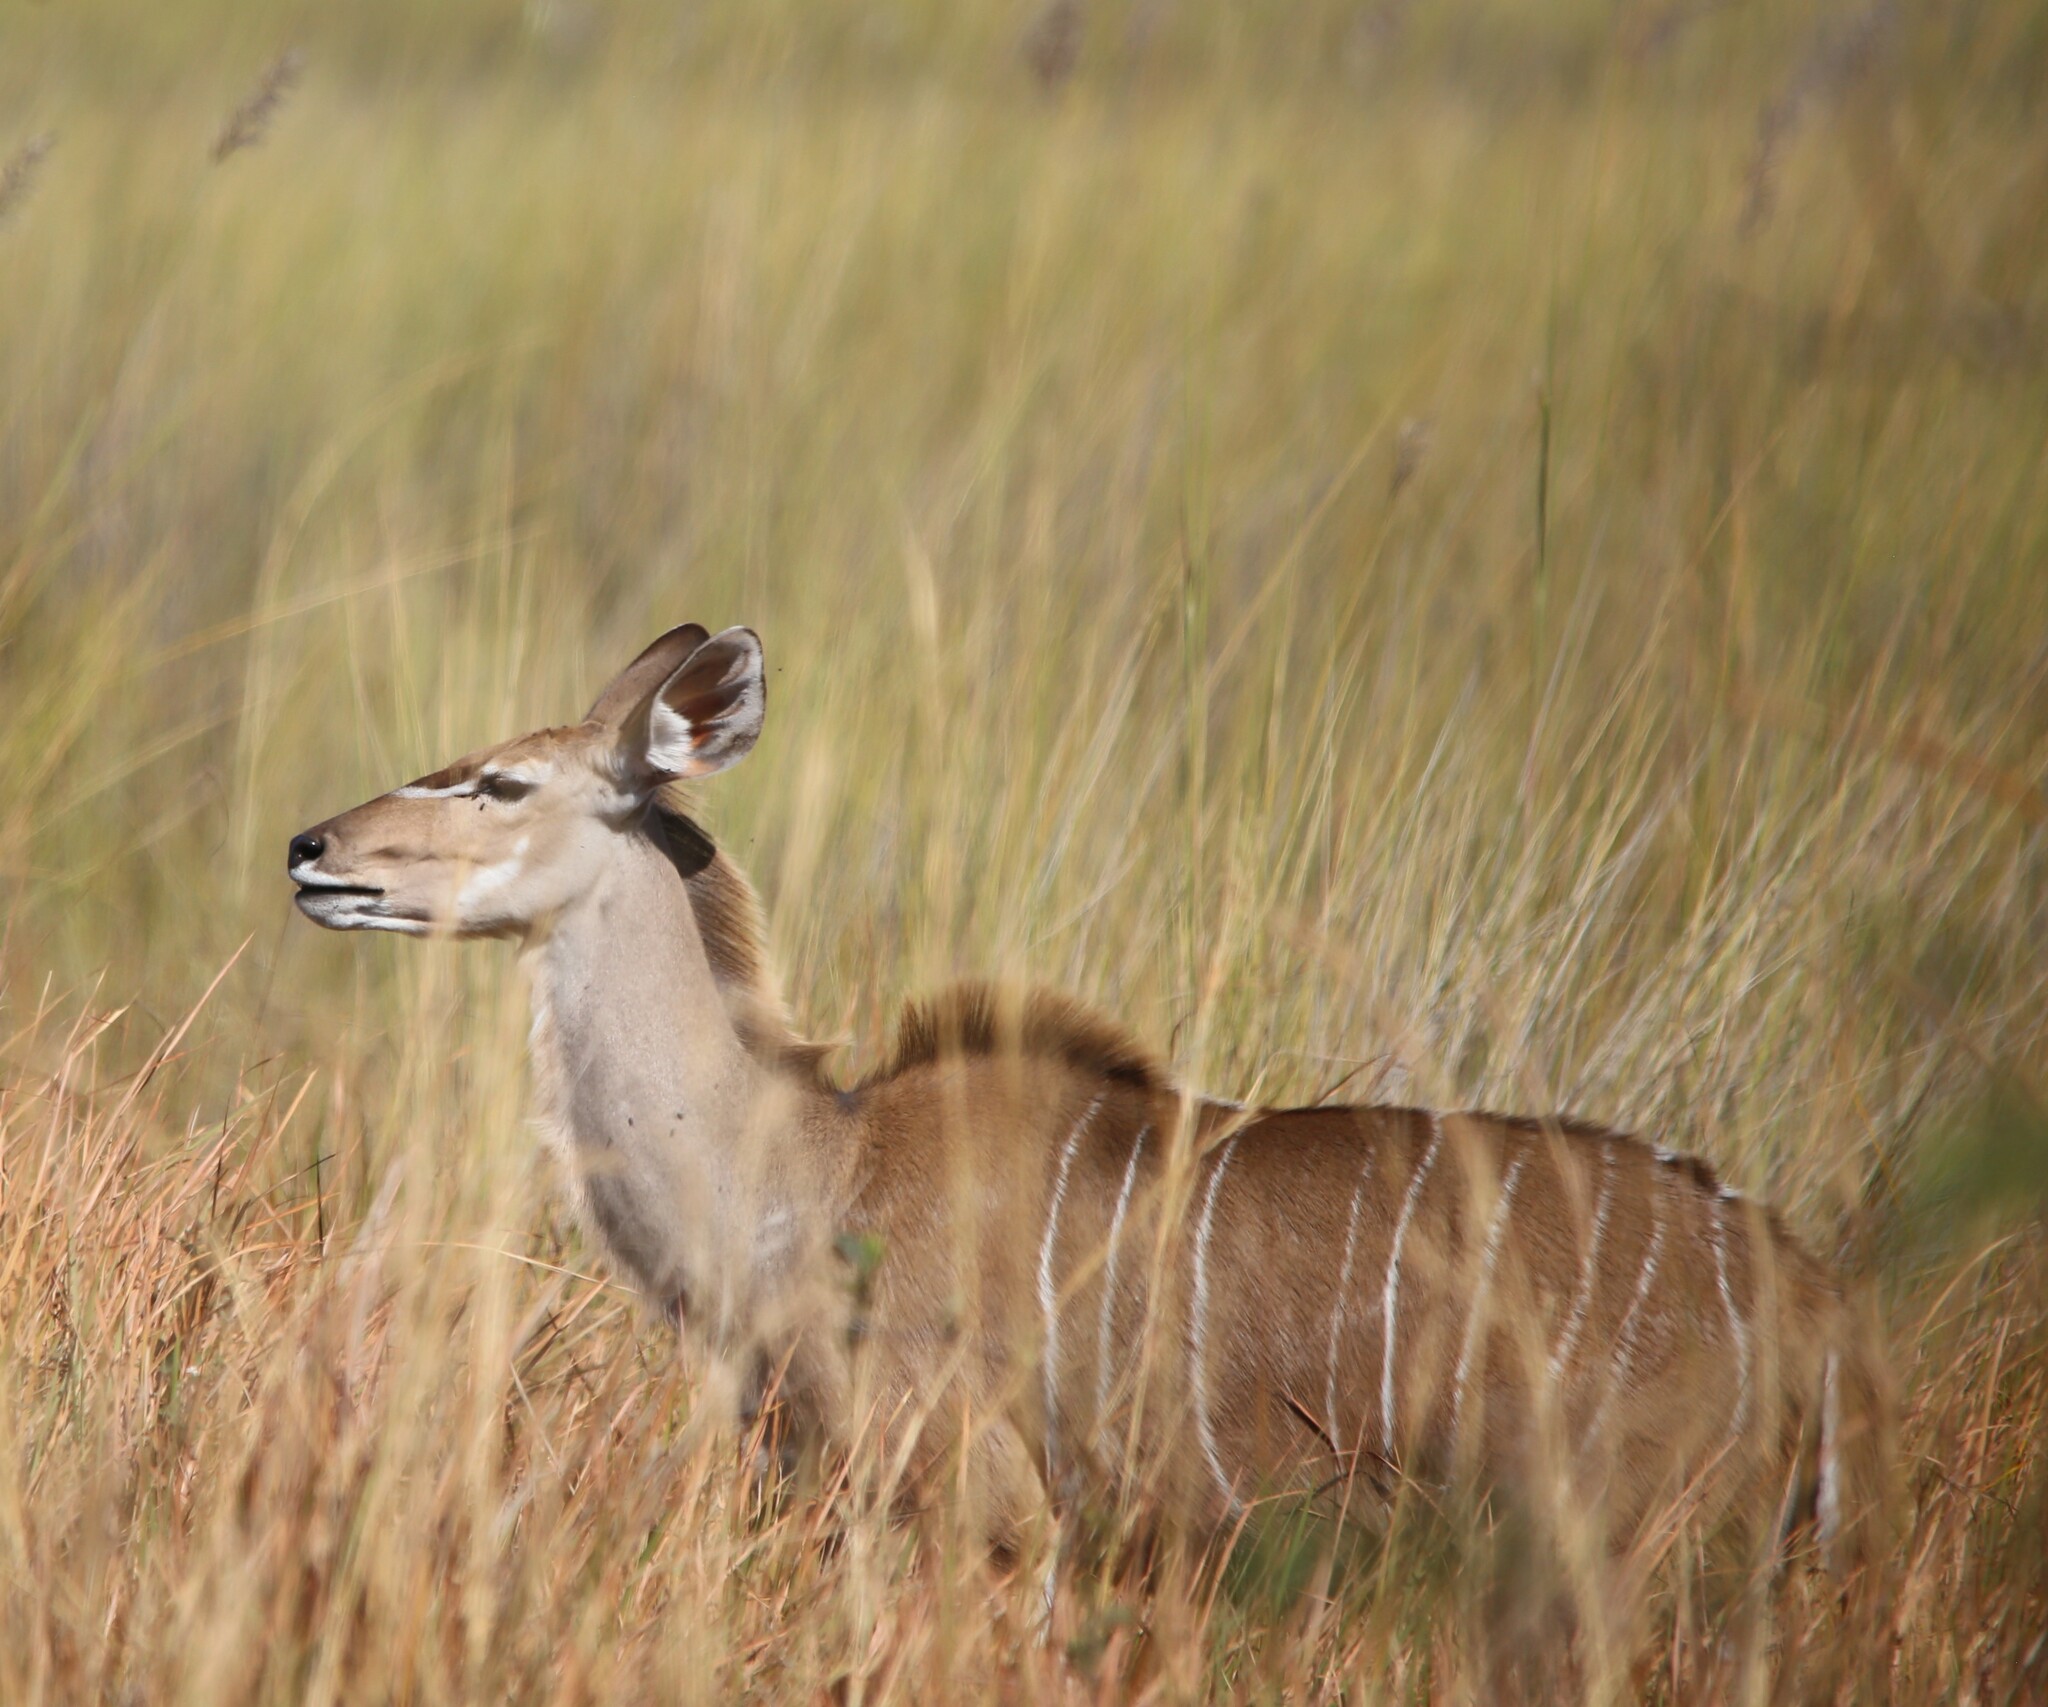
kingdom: Animalia
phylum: Chordata
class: Mammalia
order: Artiodactyla
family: Bovidae
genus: Tragelaphus
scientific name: Tragelaphus strepsiceros
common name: Greater kudu
